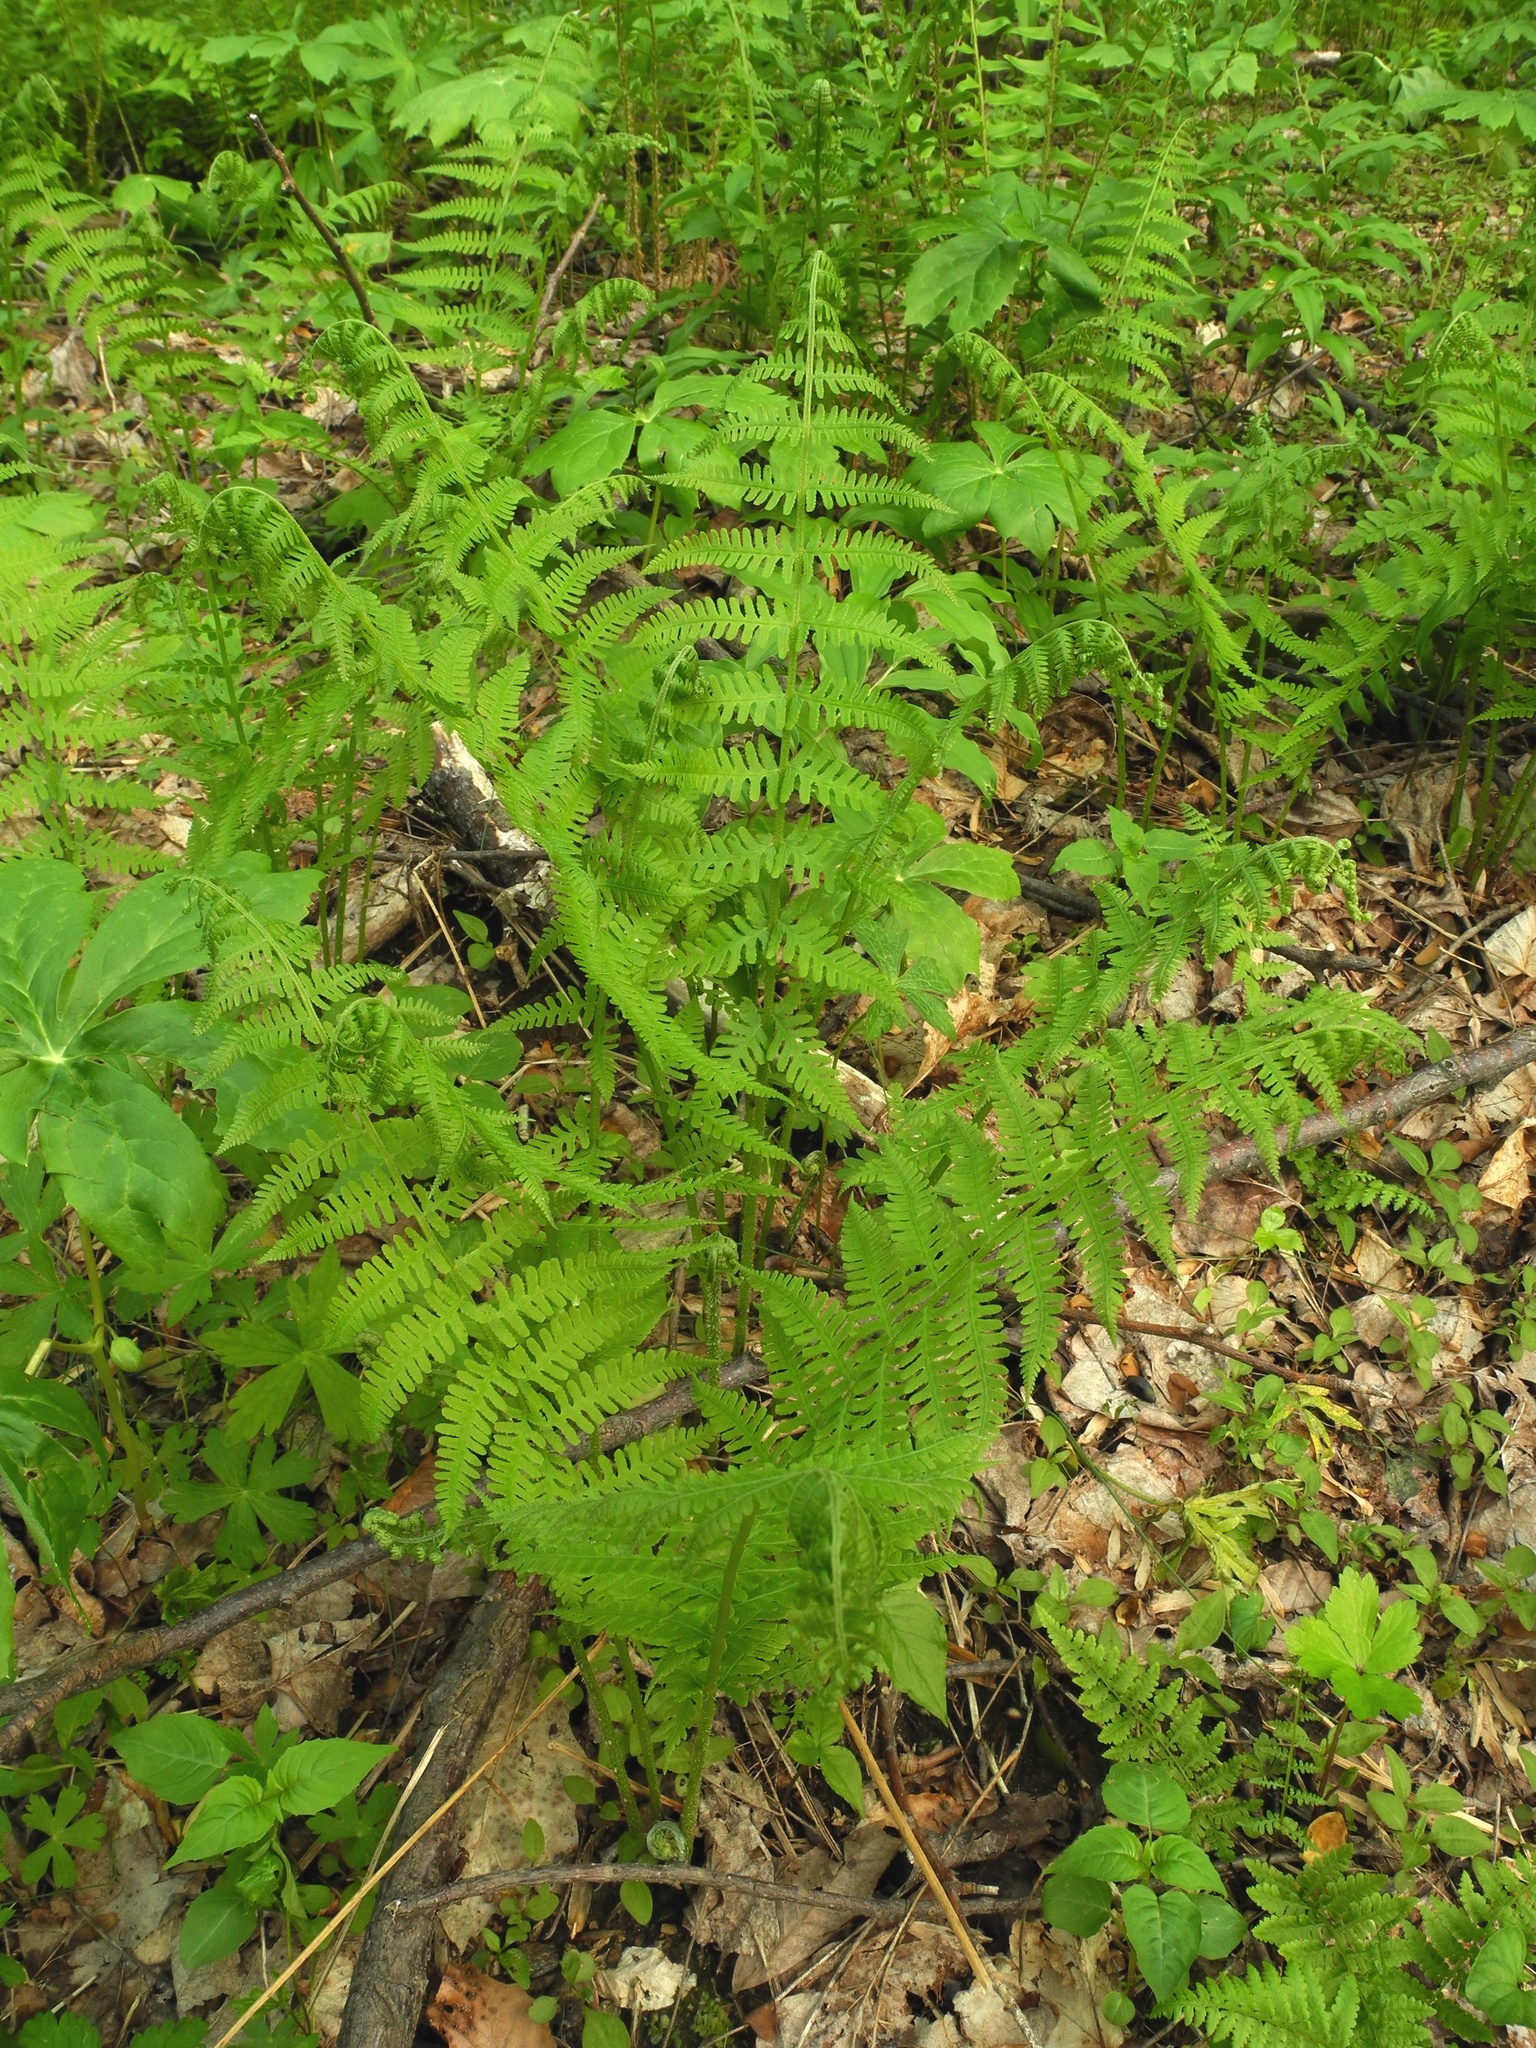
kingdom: Plantae
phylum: Tracheophyta
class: Polypodiopsida
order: Polypodiales
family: Athyriaceae
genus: Deparia
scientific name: Deparia acrostichoides
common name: Silver false spleenwort
